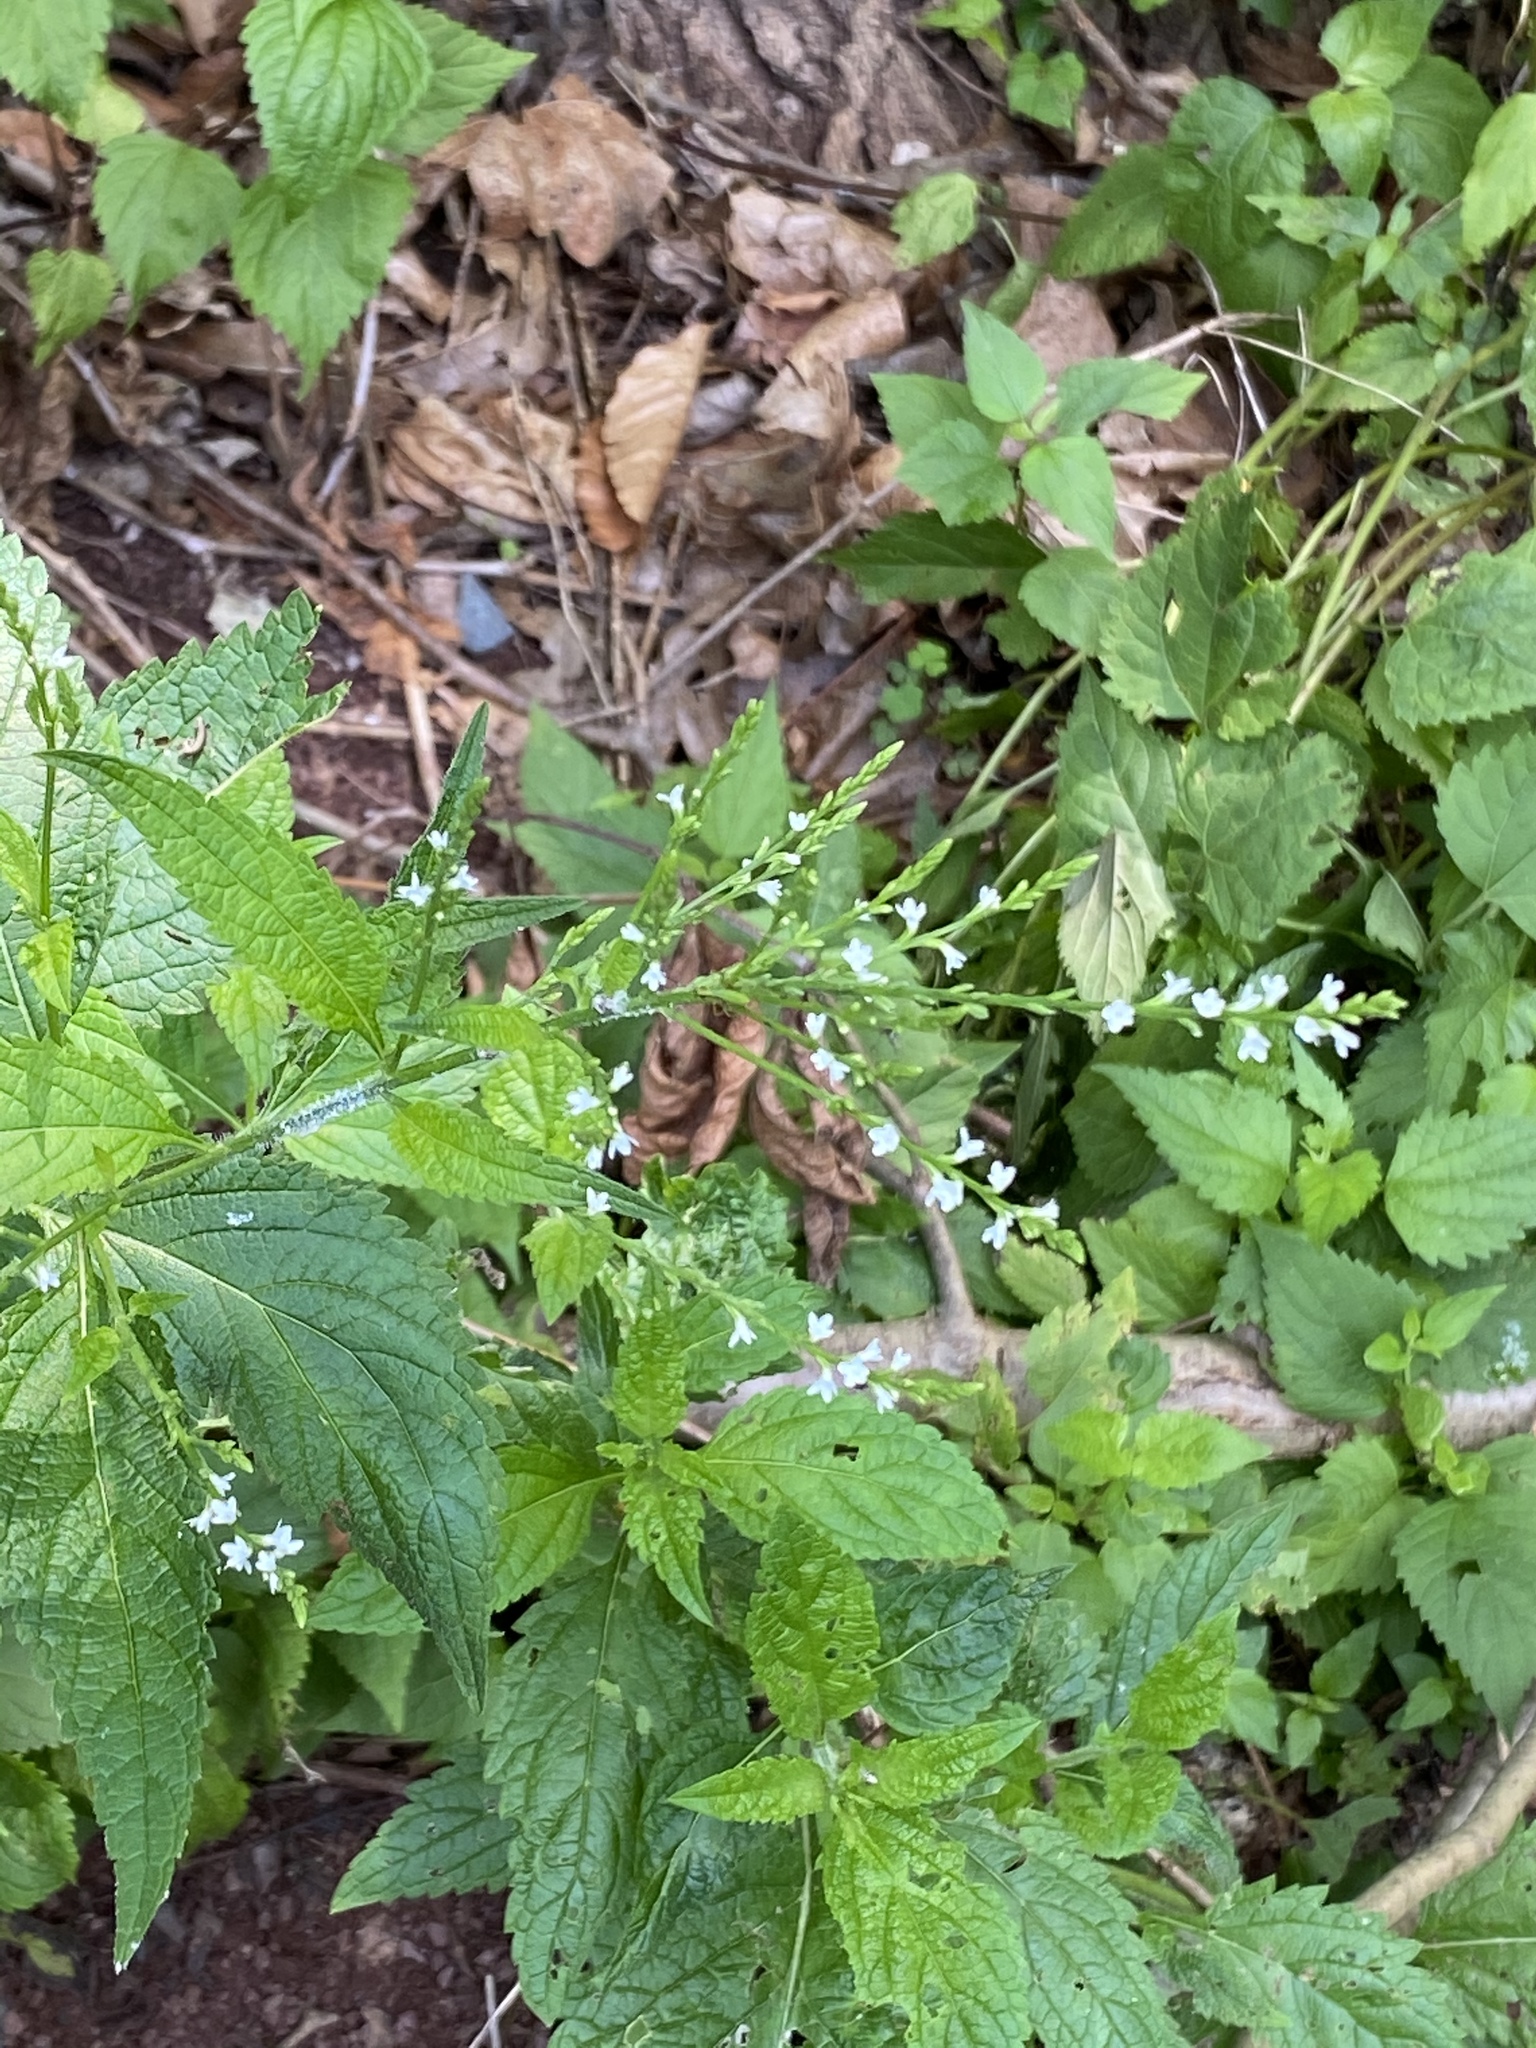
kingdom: Plantae
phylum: Tracheophyta
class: Magnoliopsida
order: Lamiales
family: Verbenaceae
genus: Verbena
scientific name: Verbena urticifolia
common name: Nettle-leaved vervain
